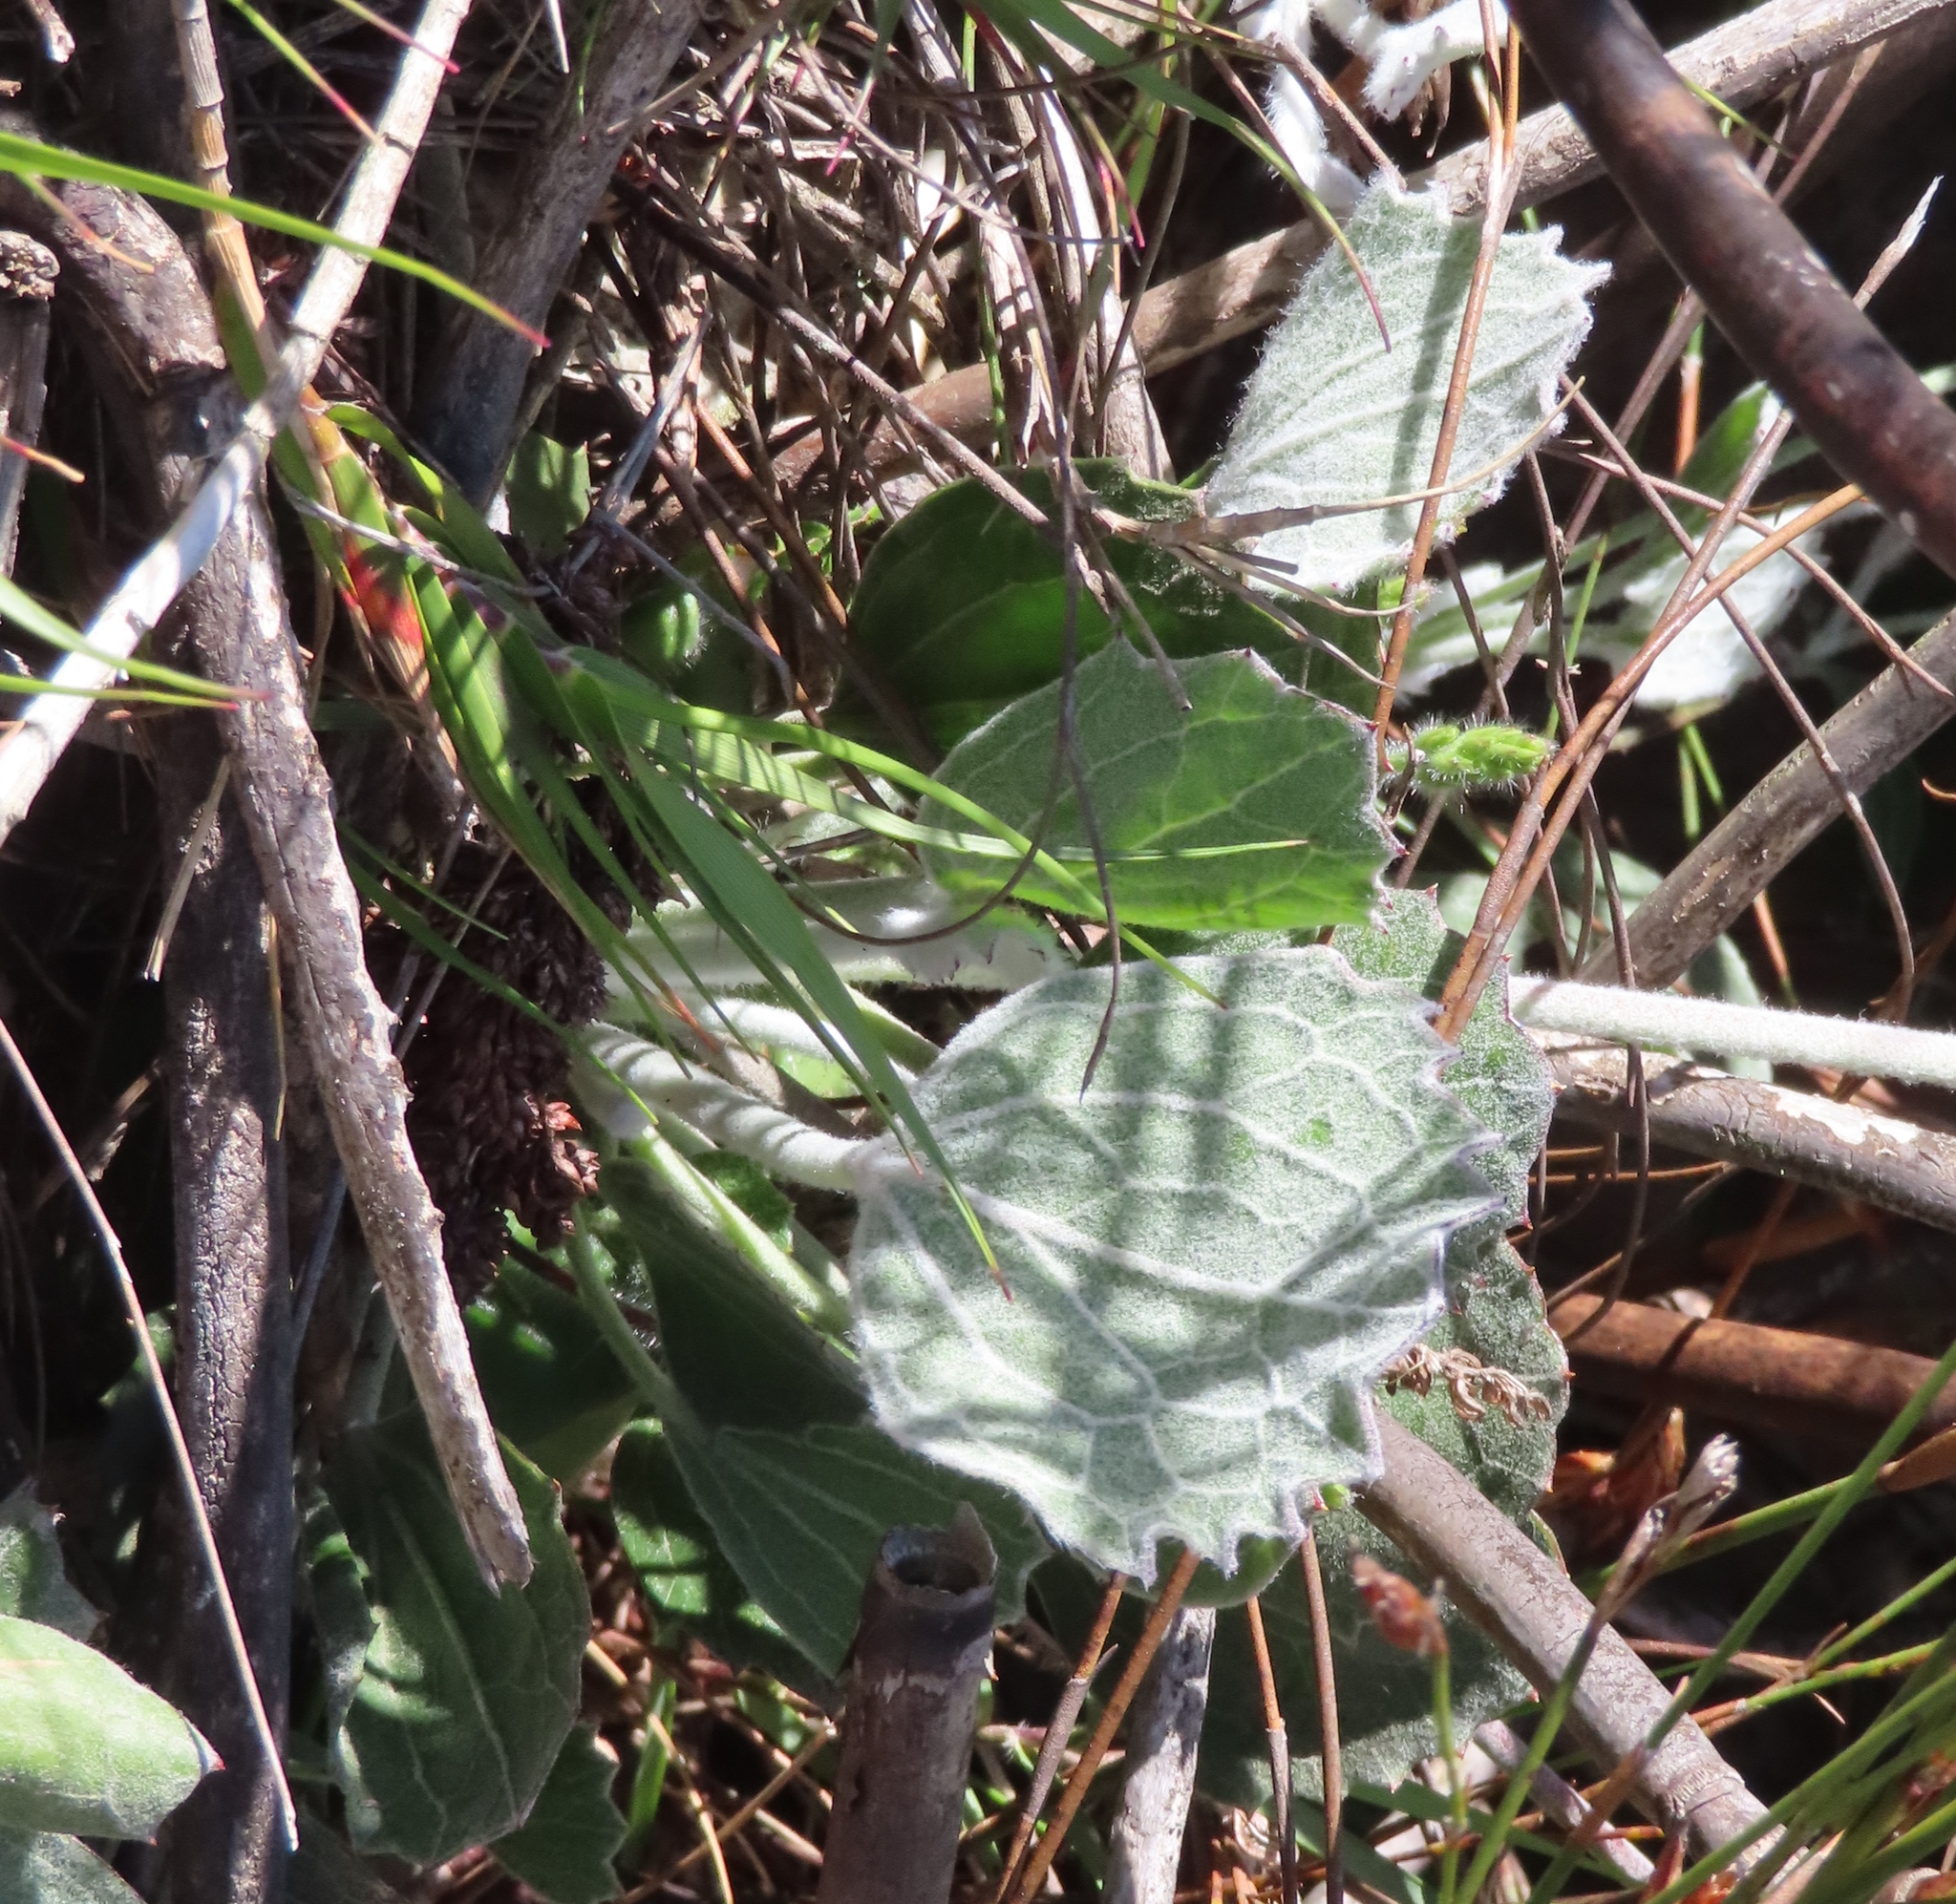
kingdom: Plantae
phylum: Tracheophyta
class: Magnoliopsida
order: Apiales
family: Apiaceae
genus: Centella
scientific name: Centella difformis
